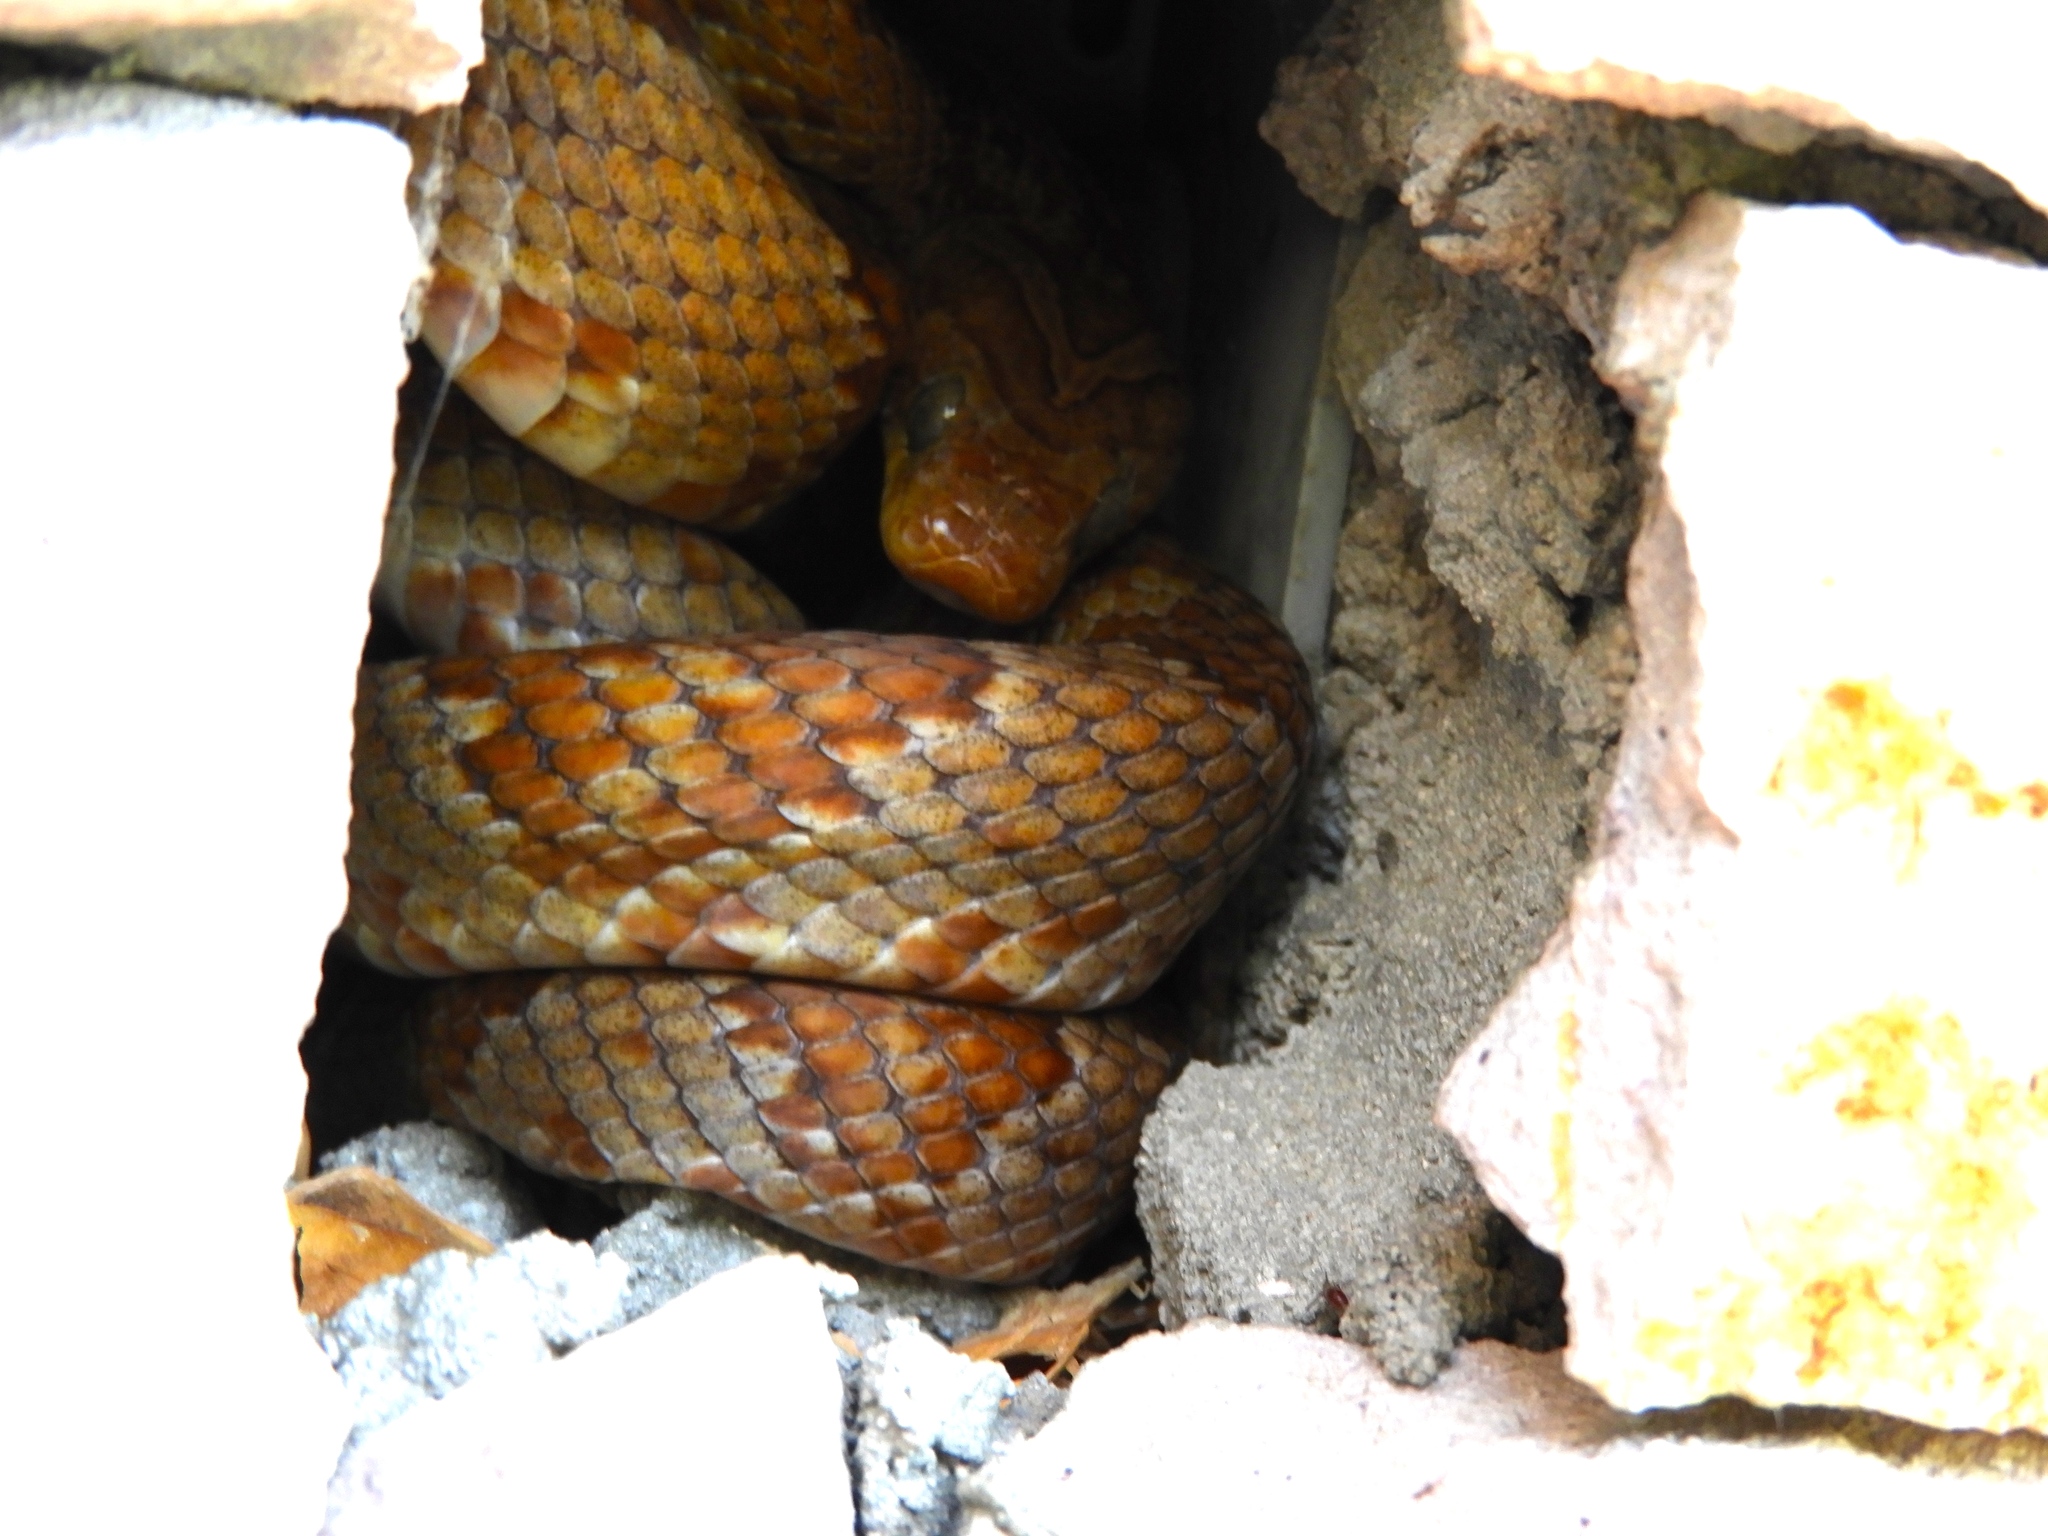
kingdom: Animalia
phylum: Chordata
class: Squamata
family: Colubridae
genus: Trimorphodon
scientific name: Trimorphodon paucimaculatus
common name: Sinaloan lyresnake
